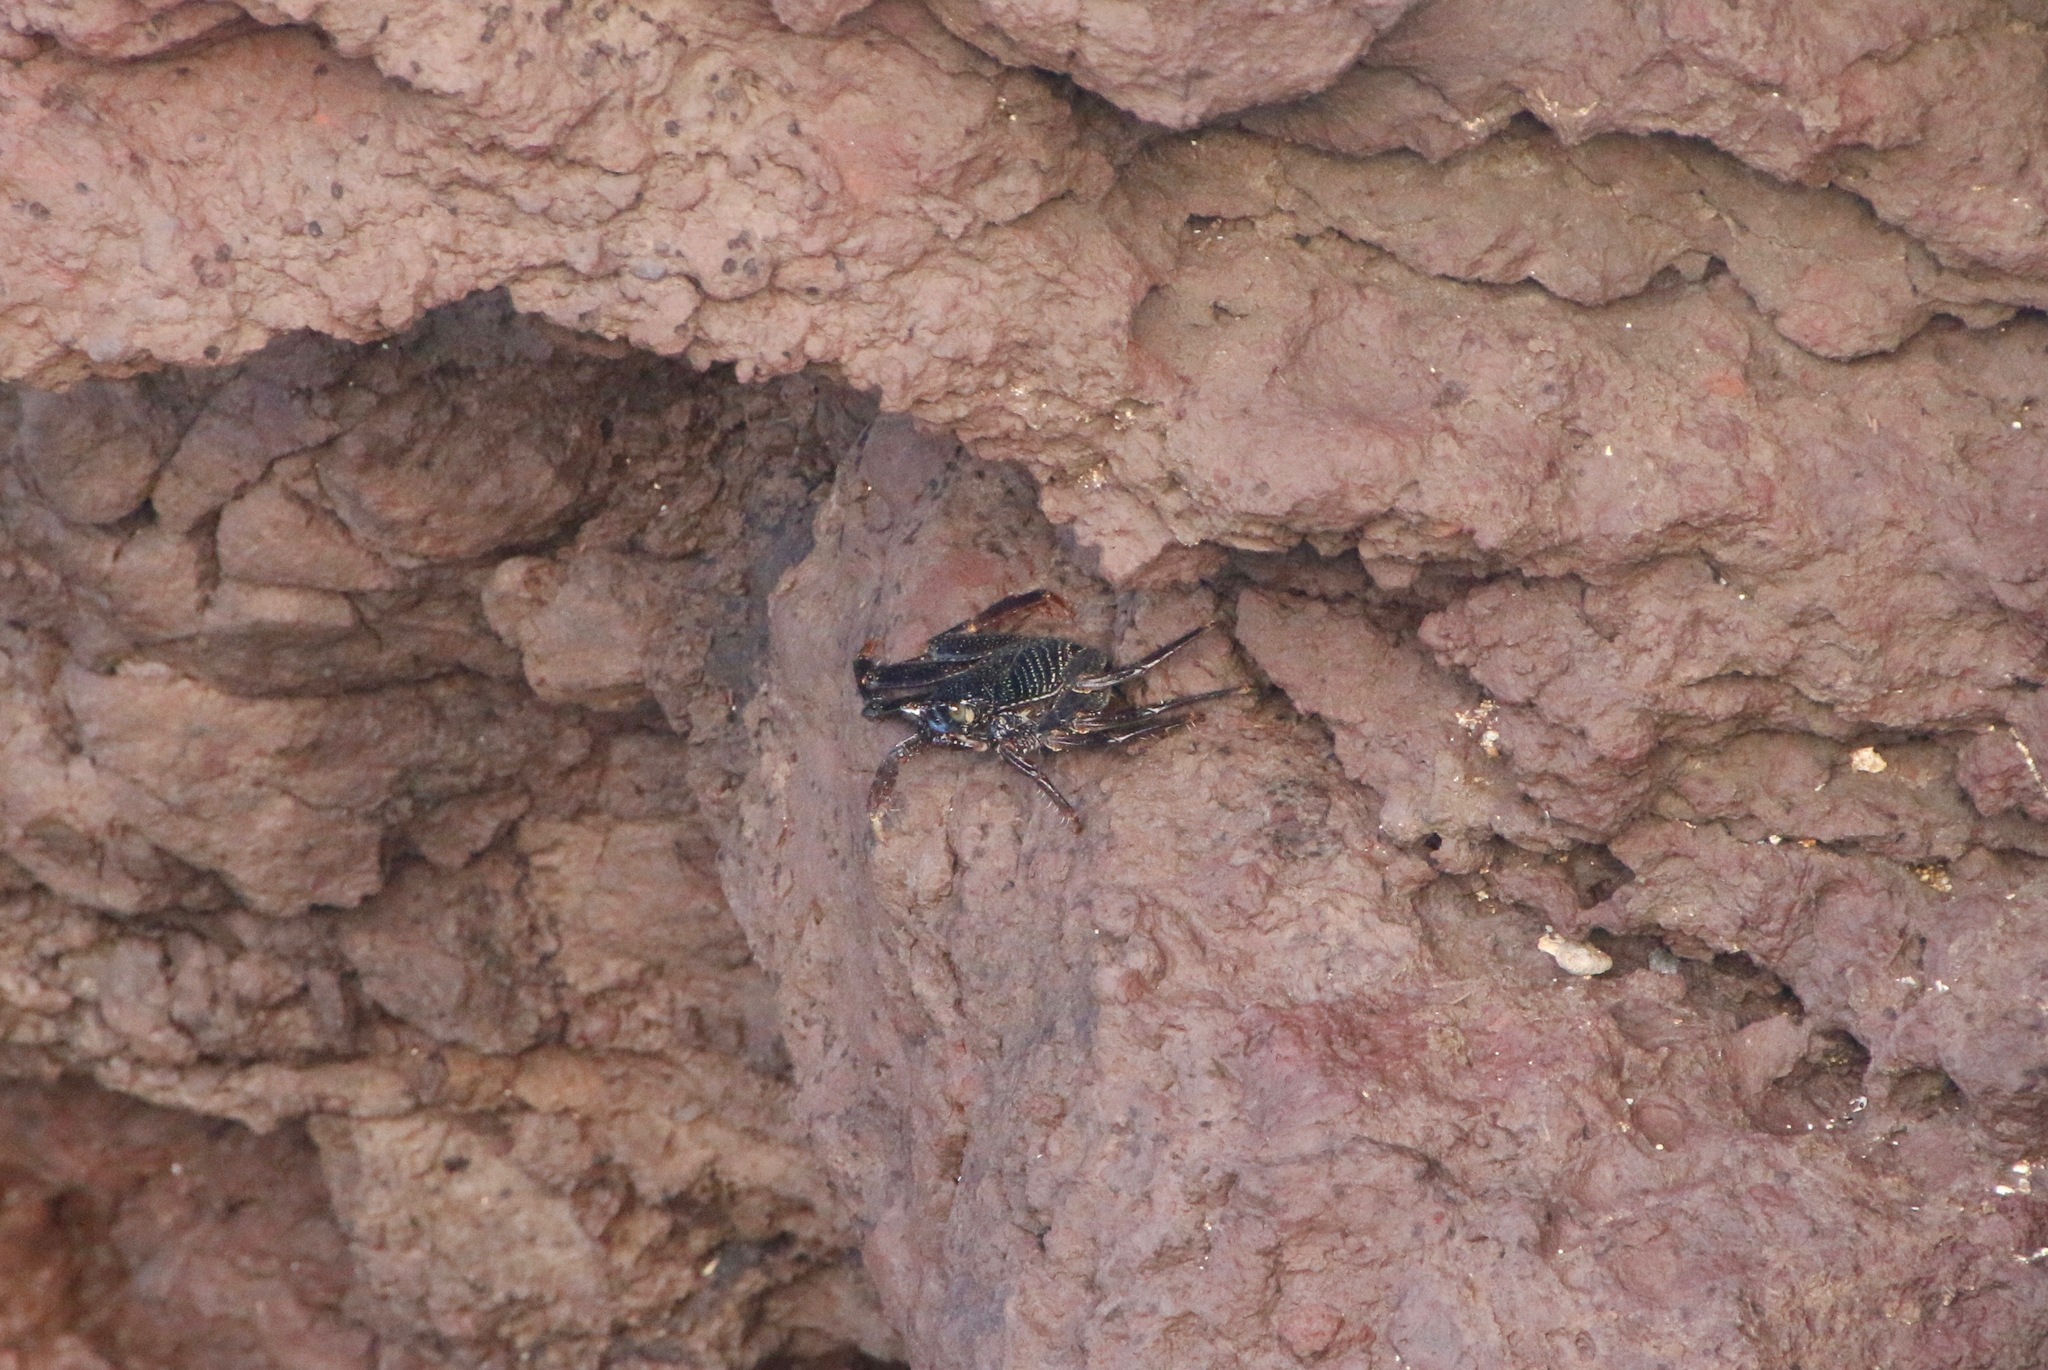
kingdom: Animalia
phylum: Arthropoda
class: Malacostraca
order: Decapoda
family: Grapsidae
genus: Grapsus
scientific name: Grapsus tenuicrustatus
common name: Natal lightfoot crab
